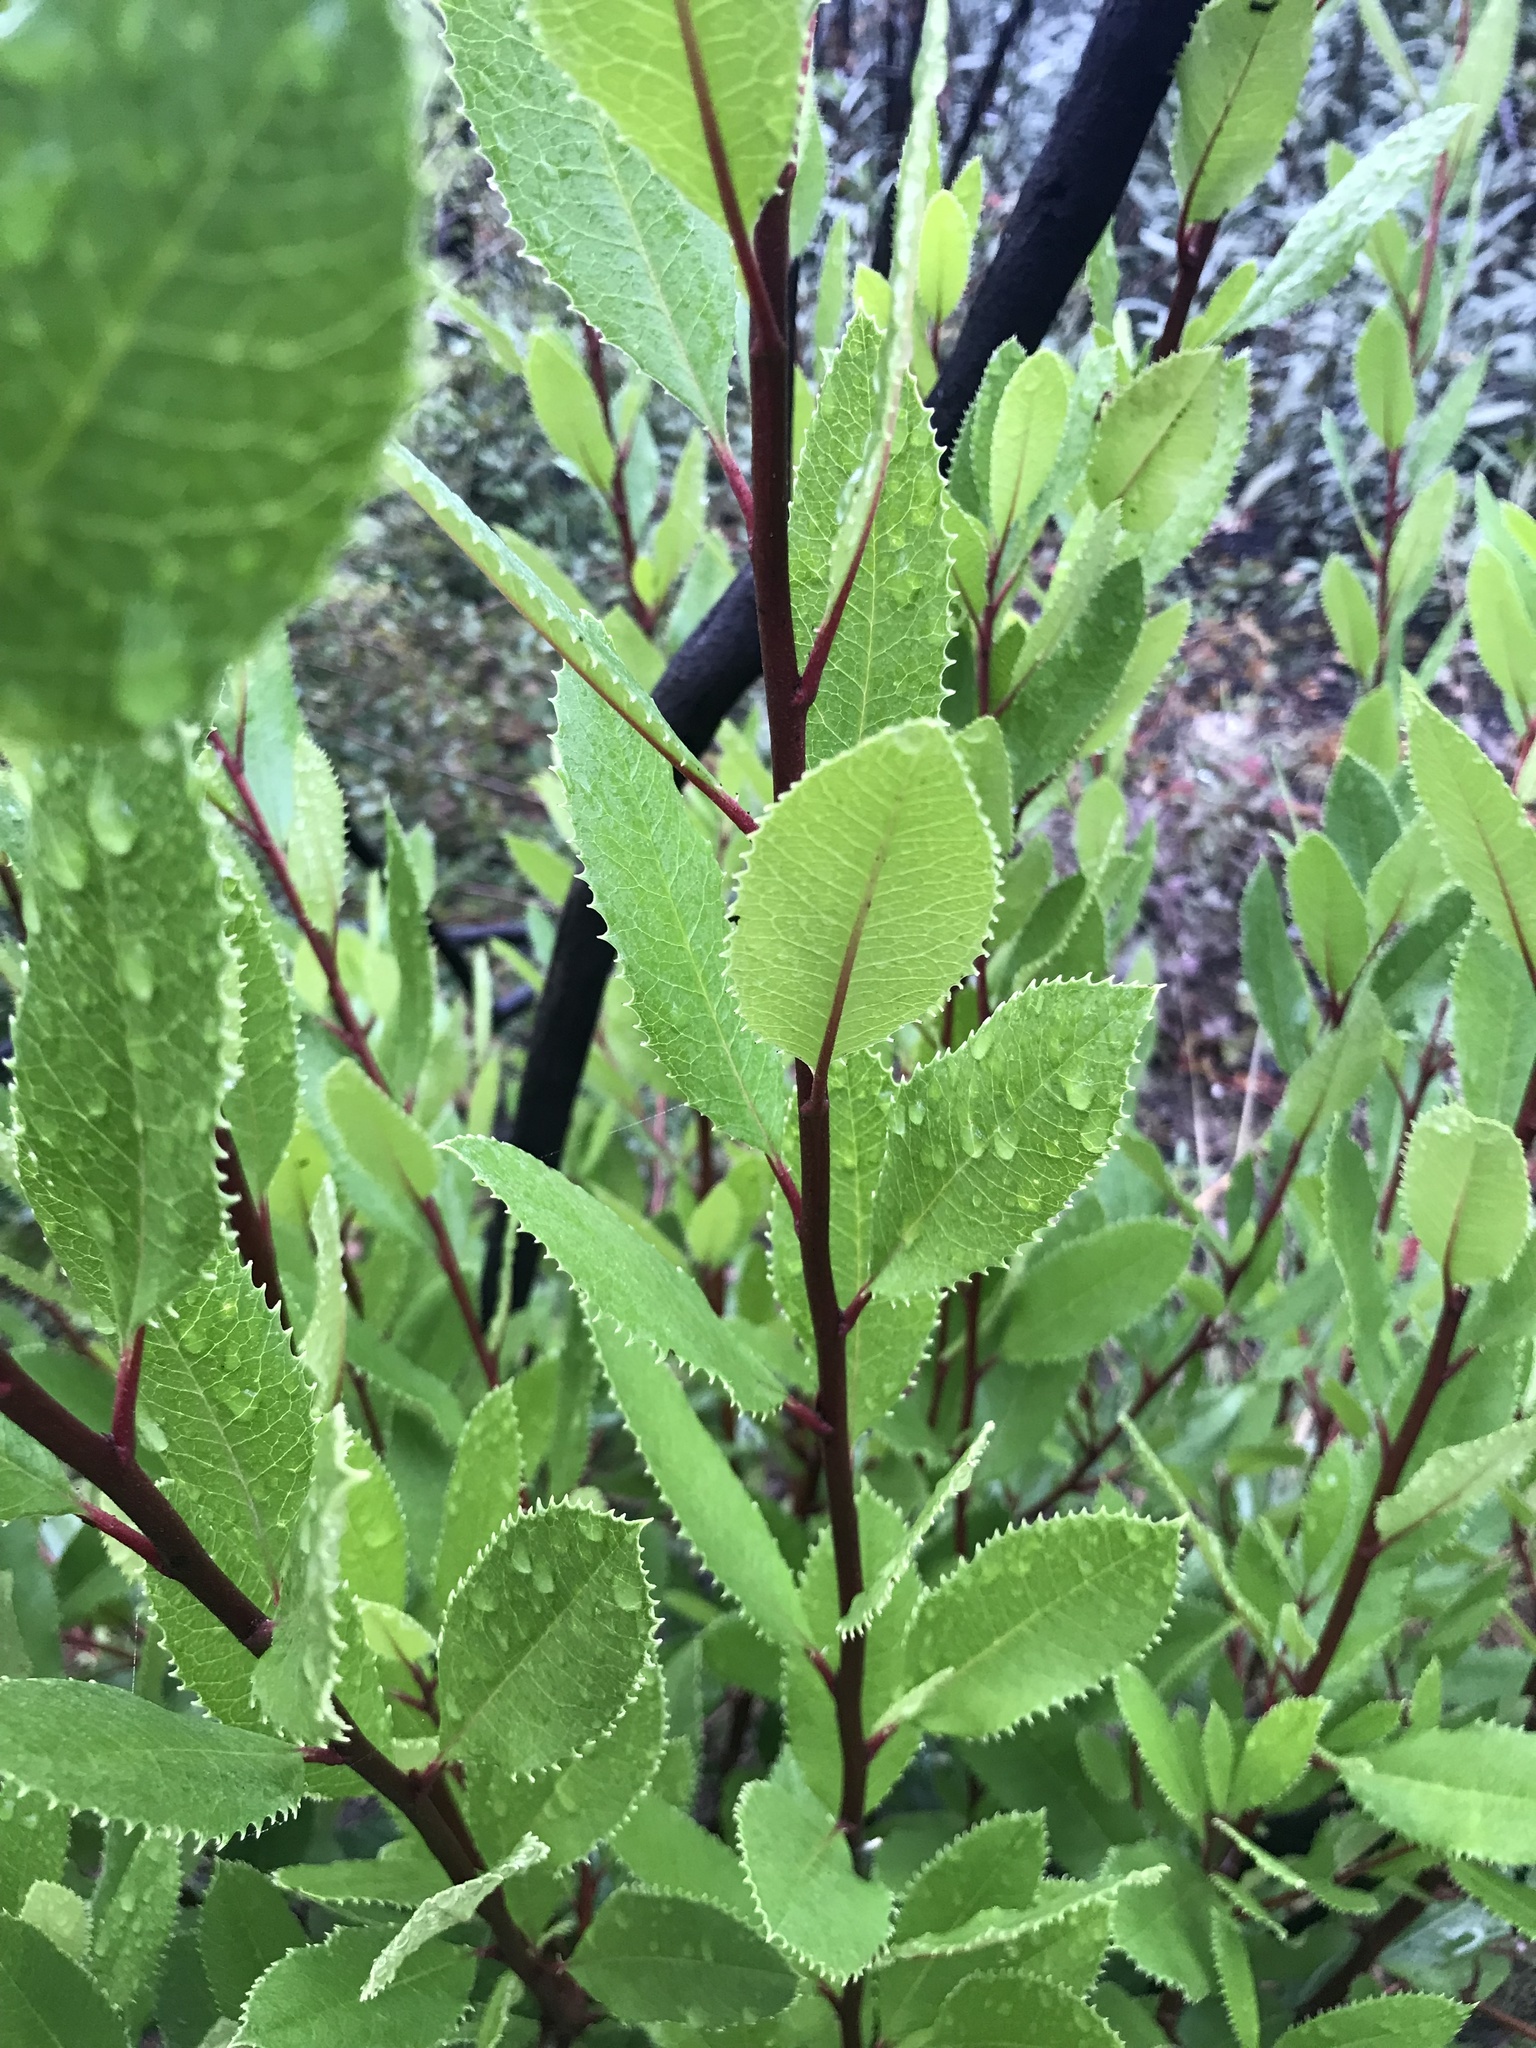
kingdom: Plantae
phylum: Tracheophyta
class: Magnoliopsida
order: Rosales
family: Rosaceae
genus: Heteromeles
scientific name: Heteromeles arbutifolia
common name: California-holly
